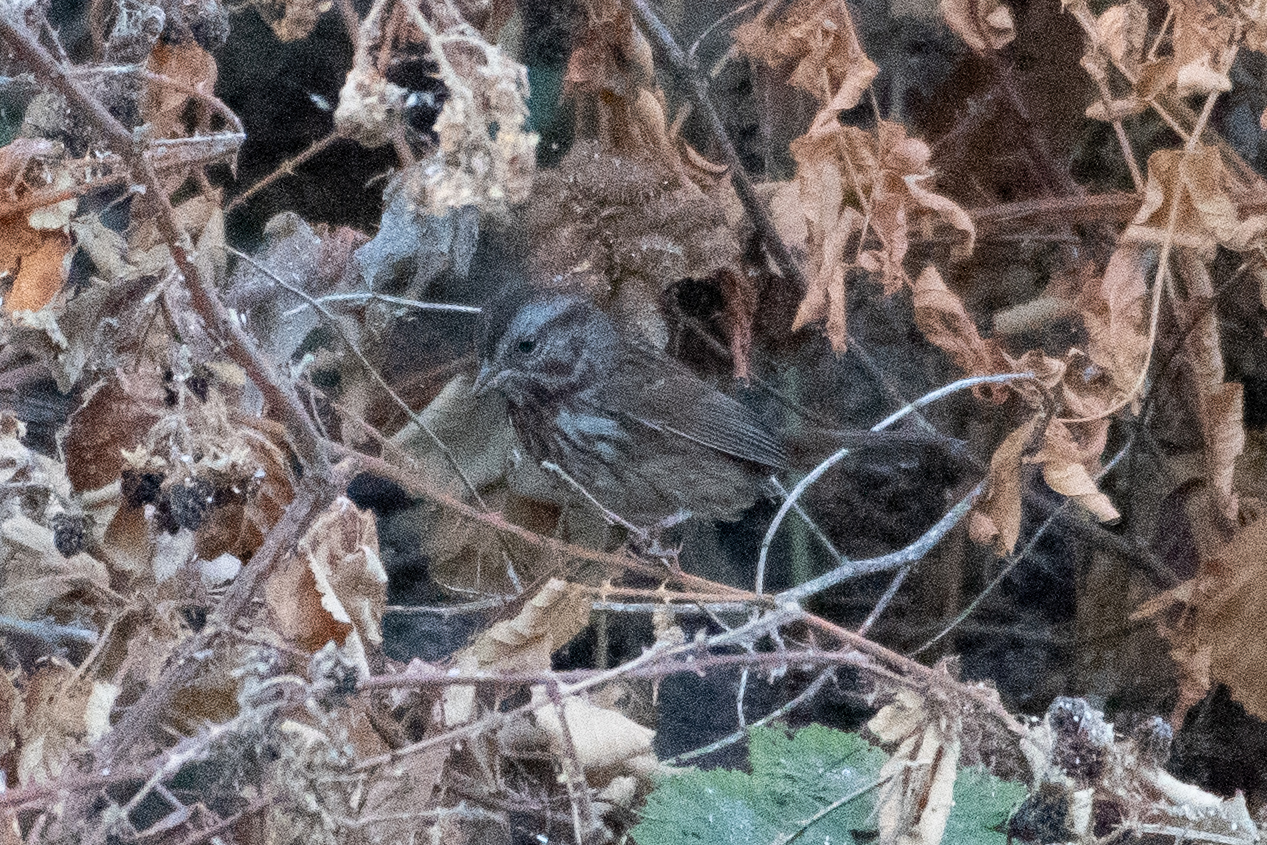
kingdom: Animalia
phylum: Chordata
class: Aves
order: Passeriformes
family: Passerellidae
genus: Melospiza
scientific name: Melospiza melodia
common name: Song sparrow
